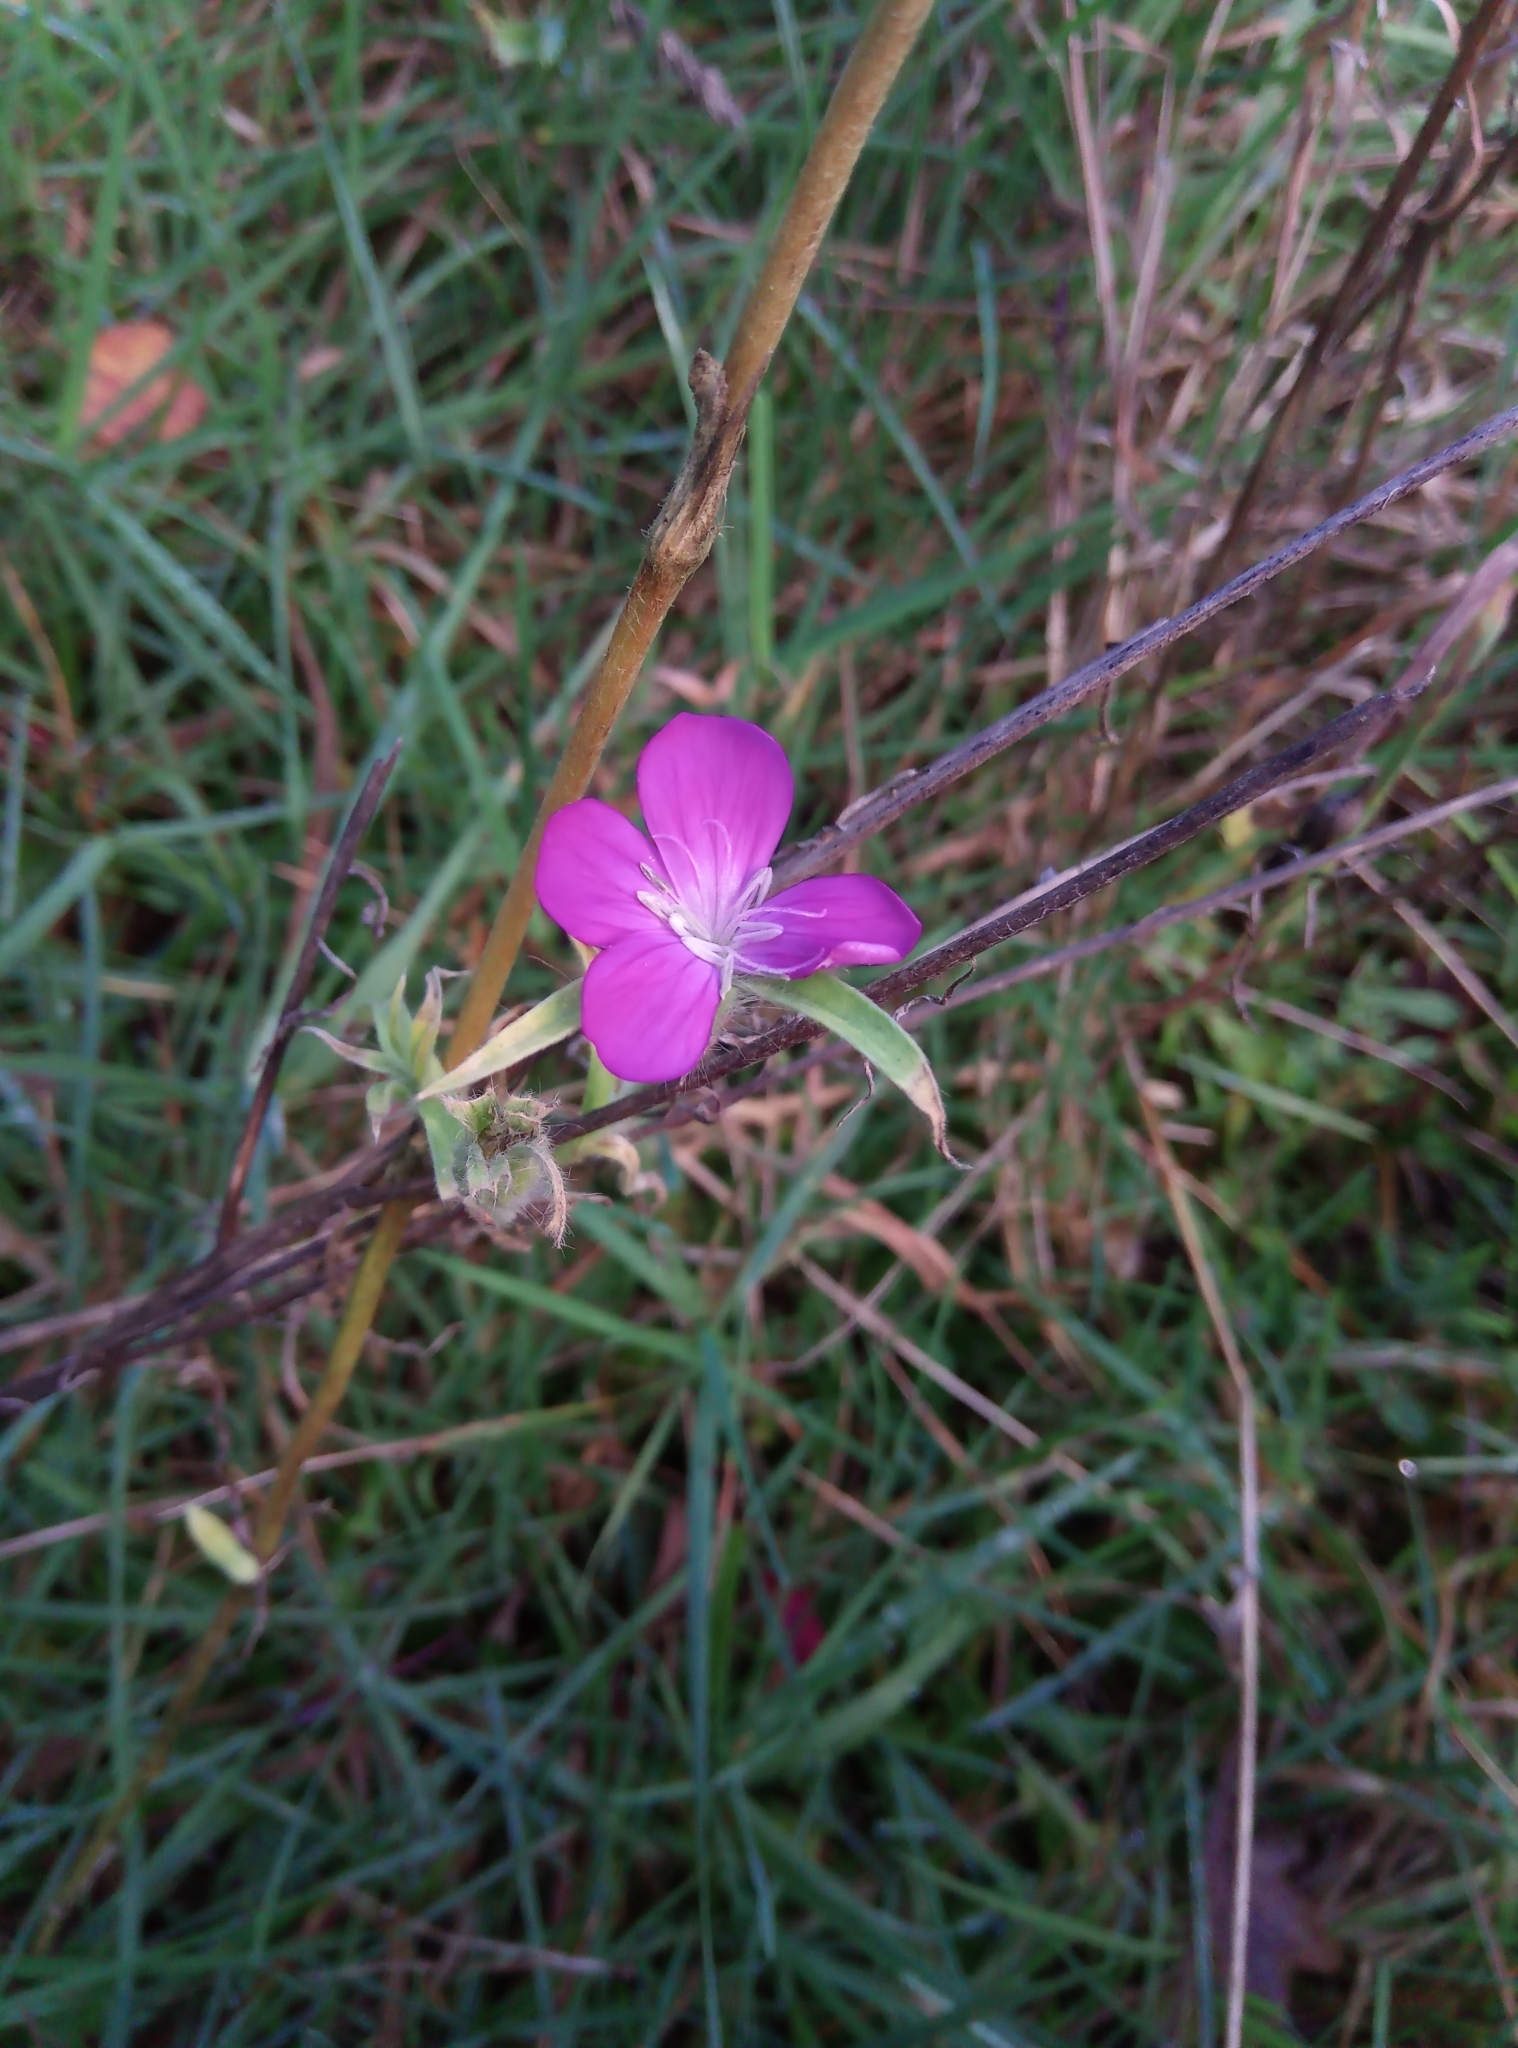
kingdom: Plantae
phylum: Tracheophyta
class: Magnoliopsida
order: Caryophyllales
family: Caryophyllaceae
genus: Agrostemma
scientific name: Agrostemma githago
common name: Common corncockle
